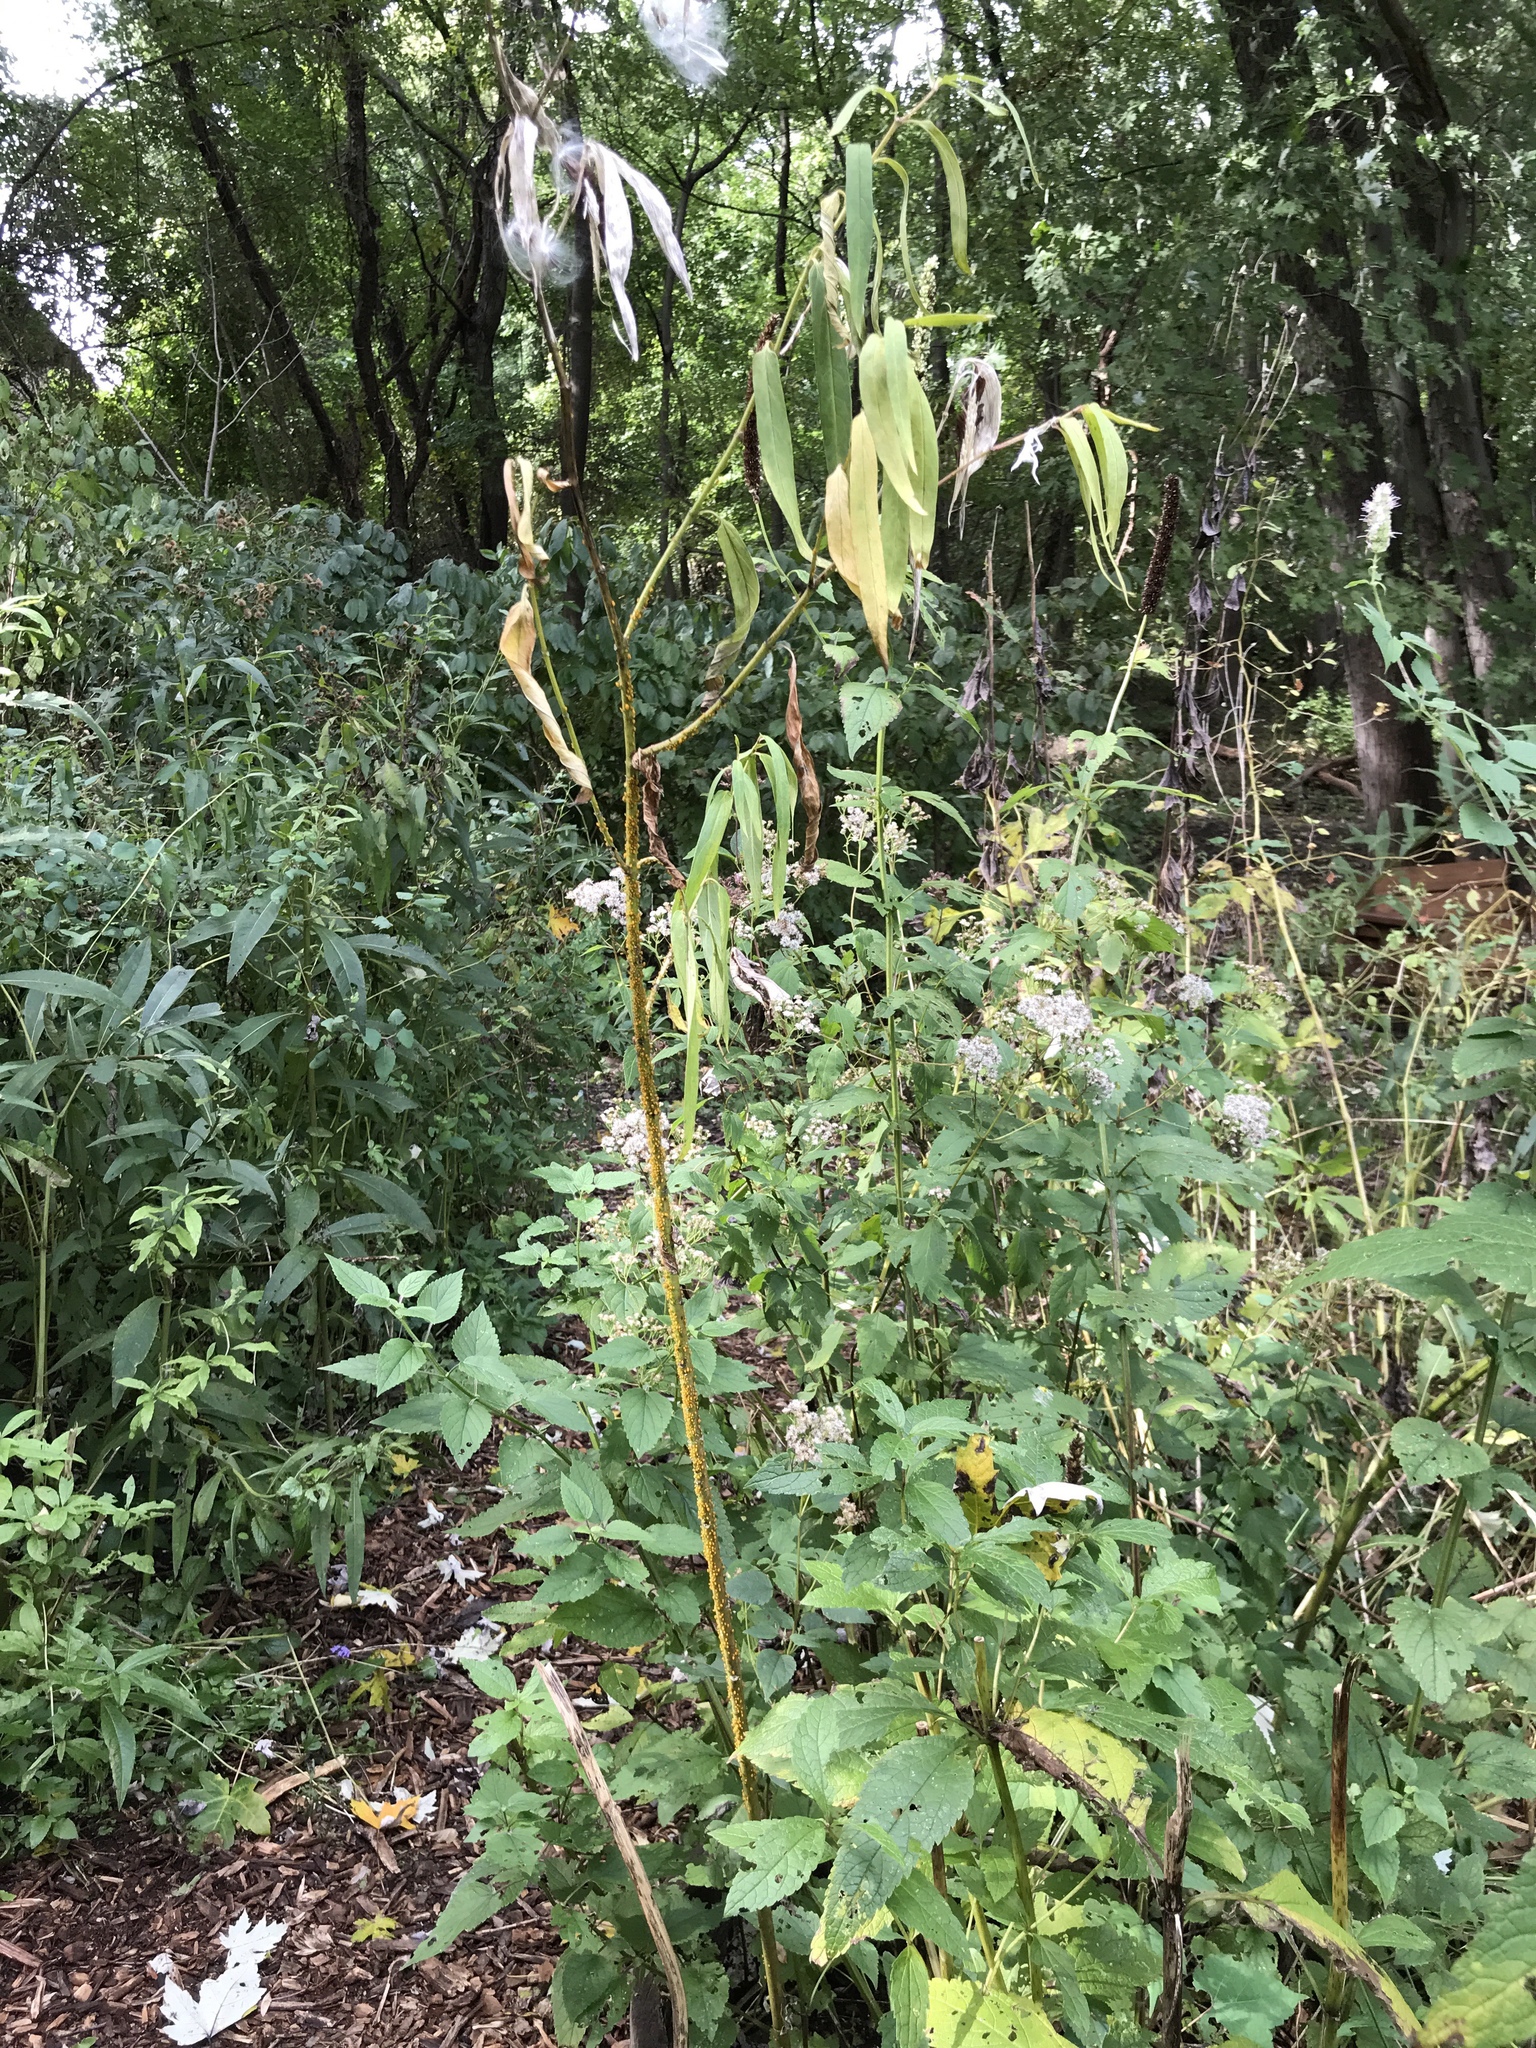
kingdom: Plantae
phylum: Tracheophyta
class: Magnoliopsida
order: Gentianales
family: Apocynaceae
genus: Asclepias
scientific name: Asclepias incarnata
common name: Swamp milkweed
